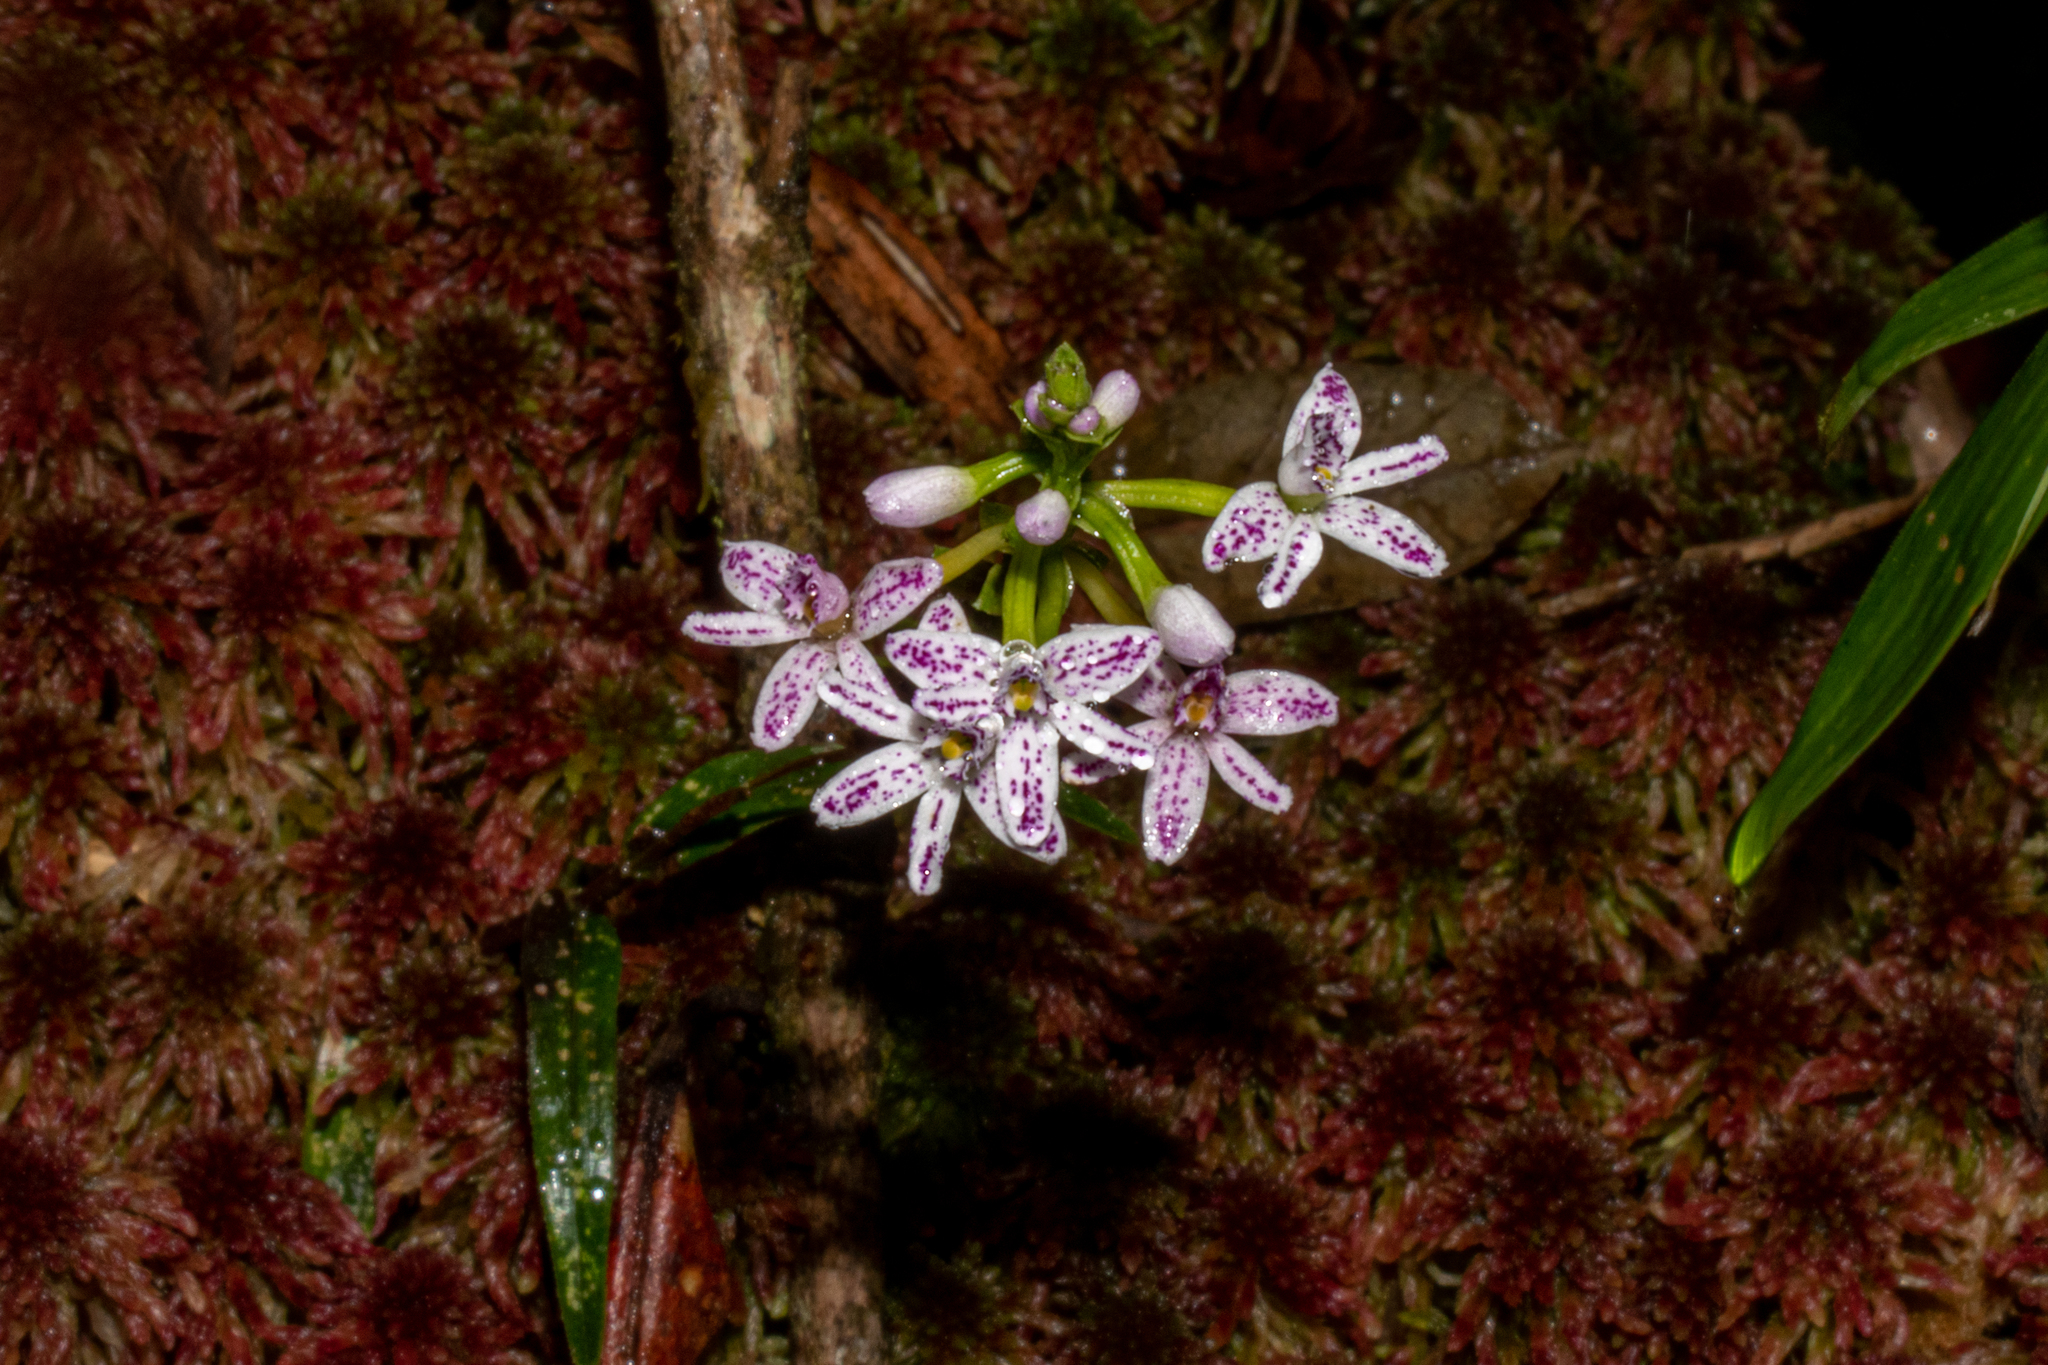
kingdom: Plantae
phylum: Tracheophyta
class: Liliopsida
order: Asparagales
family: Orchidaceae
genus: Epidendrum
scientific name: Epidendrum fimbriatum
